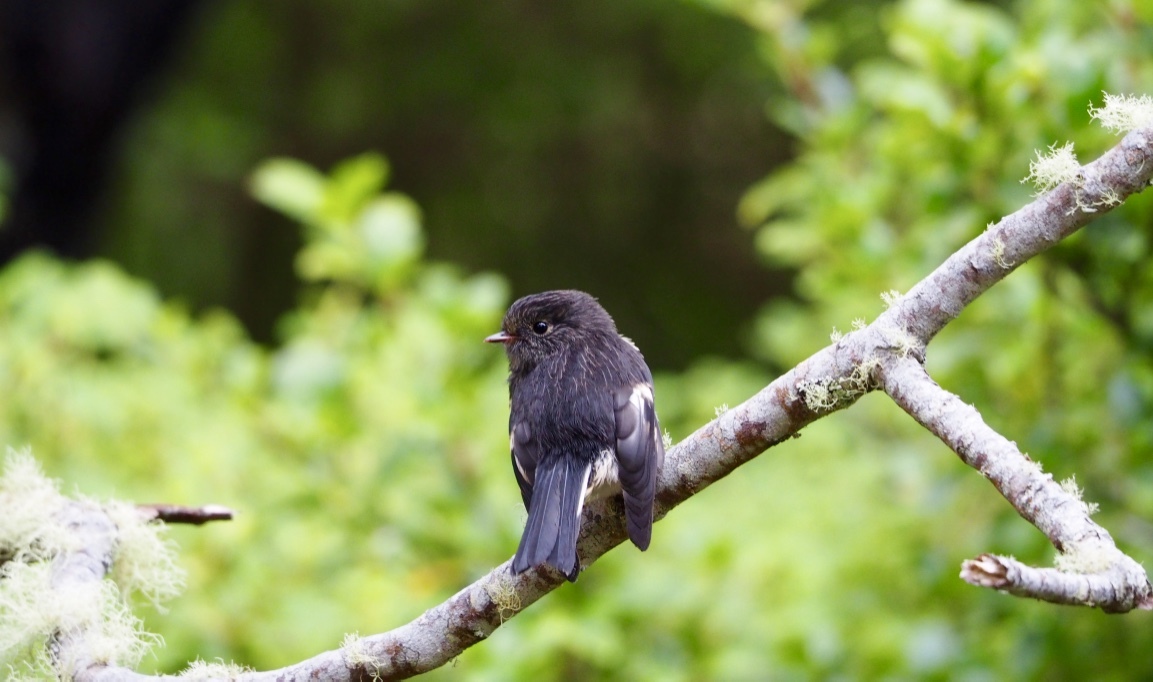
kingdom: Animalia
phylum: Chordata
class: Aves
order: Passeriformes
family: Petroicidae
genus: Petroica
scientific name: Petroica macrocephala
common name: Tomtit
